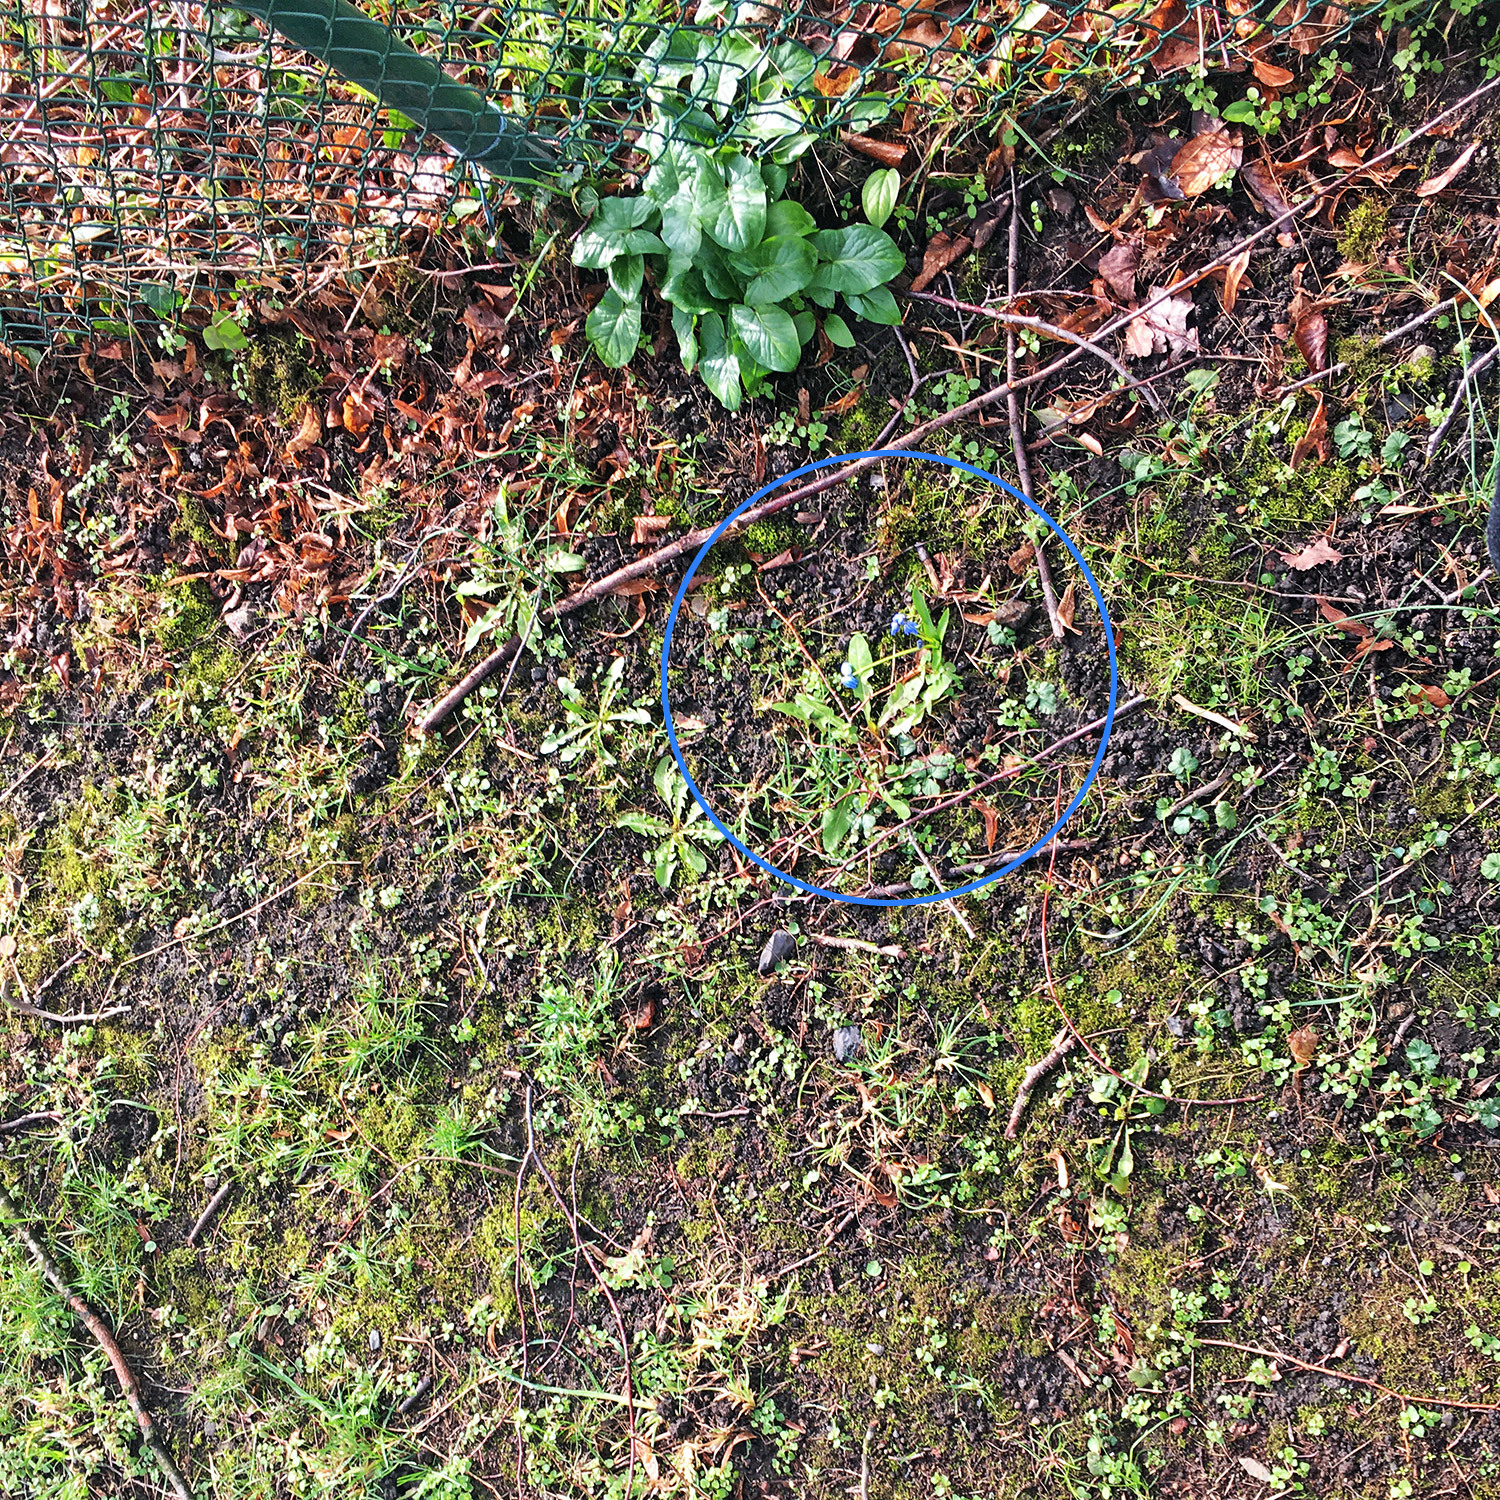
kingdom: Plantae
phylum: Tracheophyta
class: Liliopsida
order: Asparagales
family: Asparagaceae
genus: Scilla
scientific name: Scilla siberica
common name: Siberian squill
